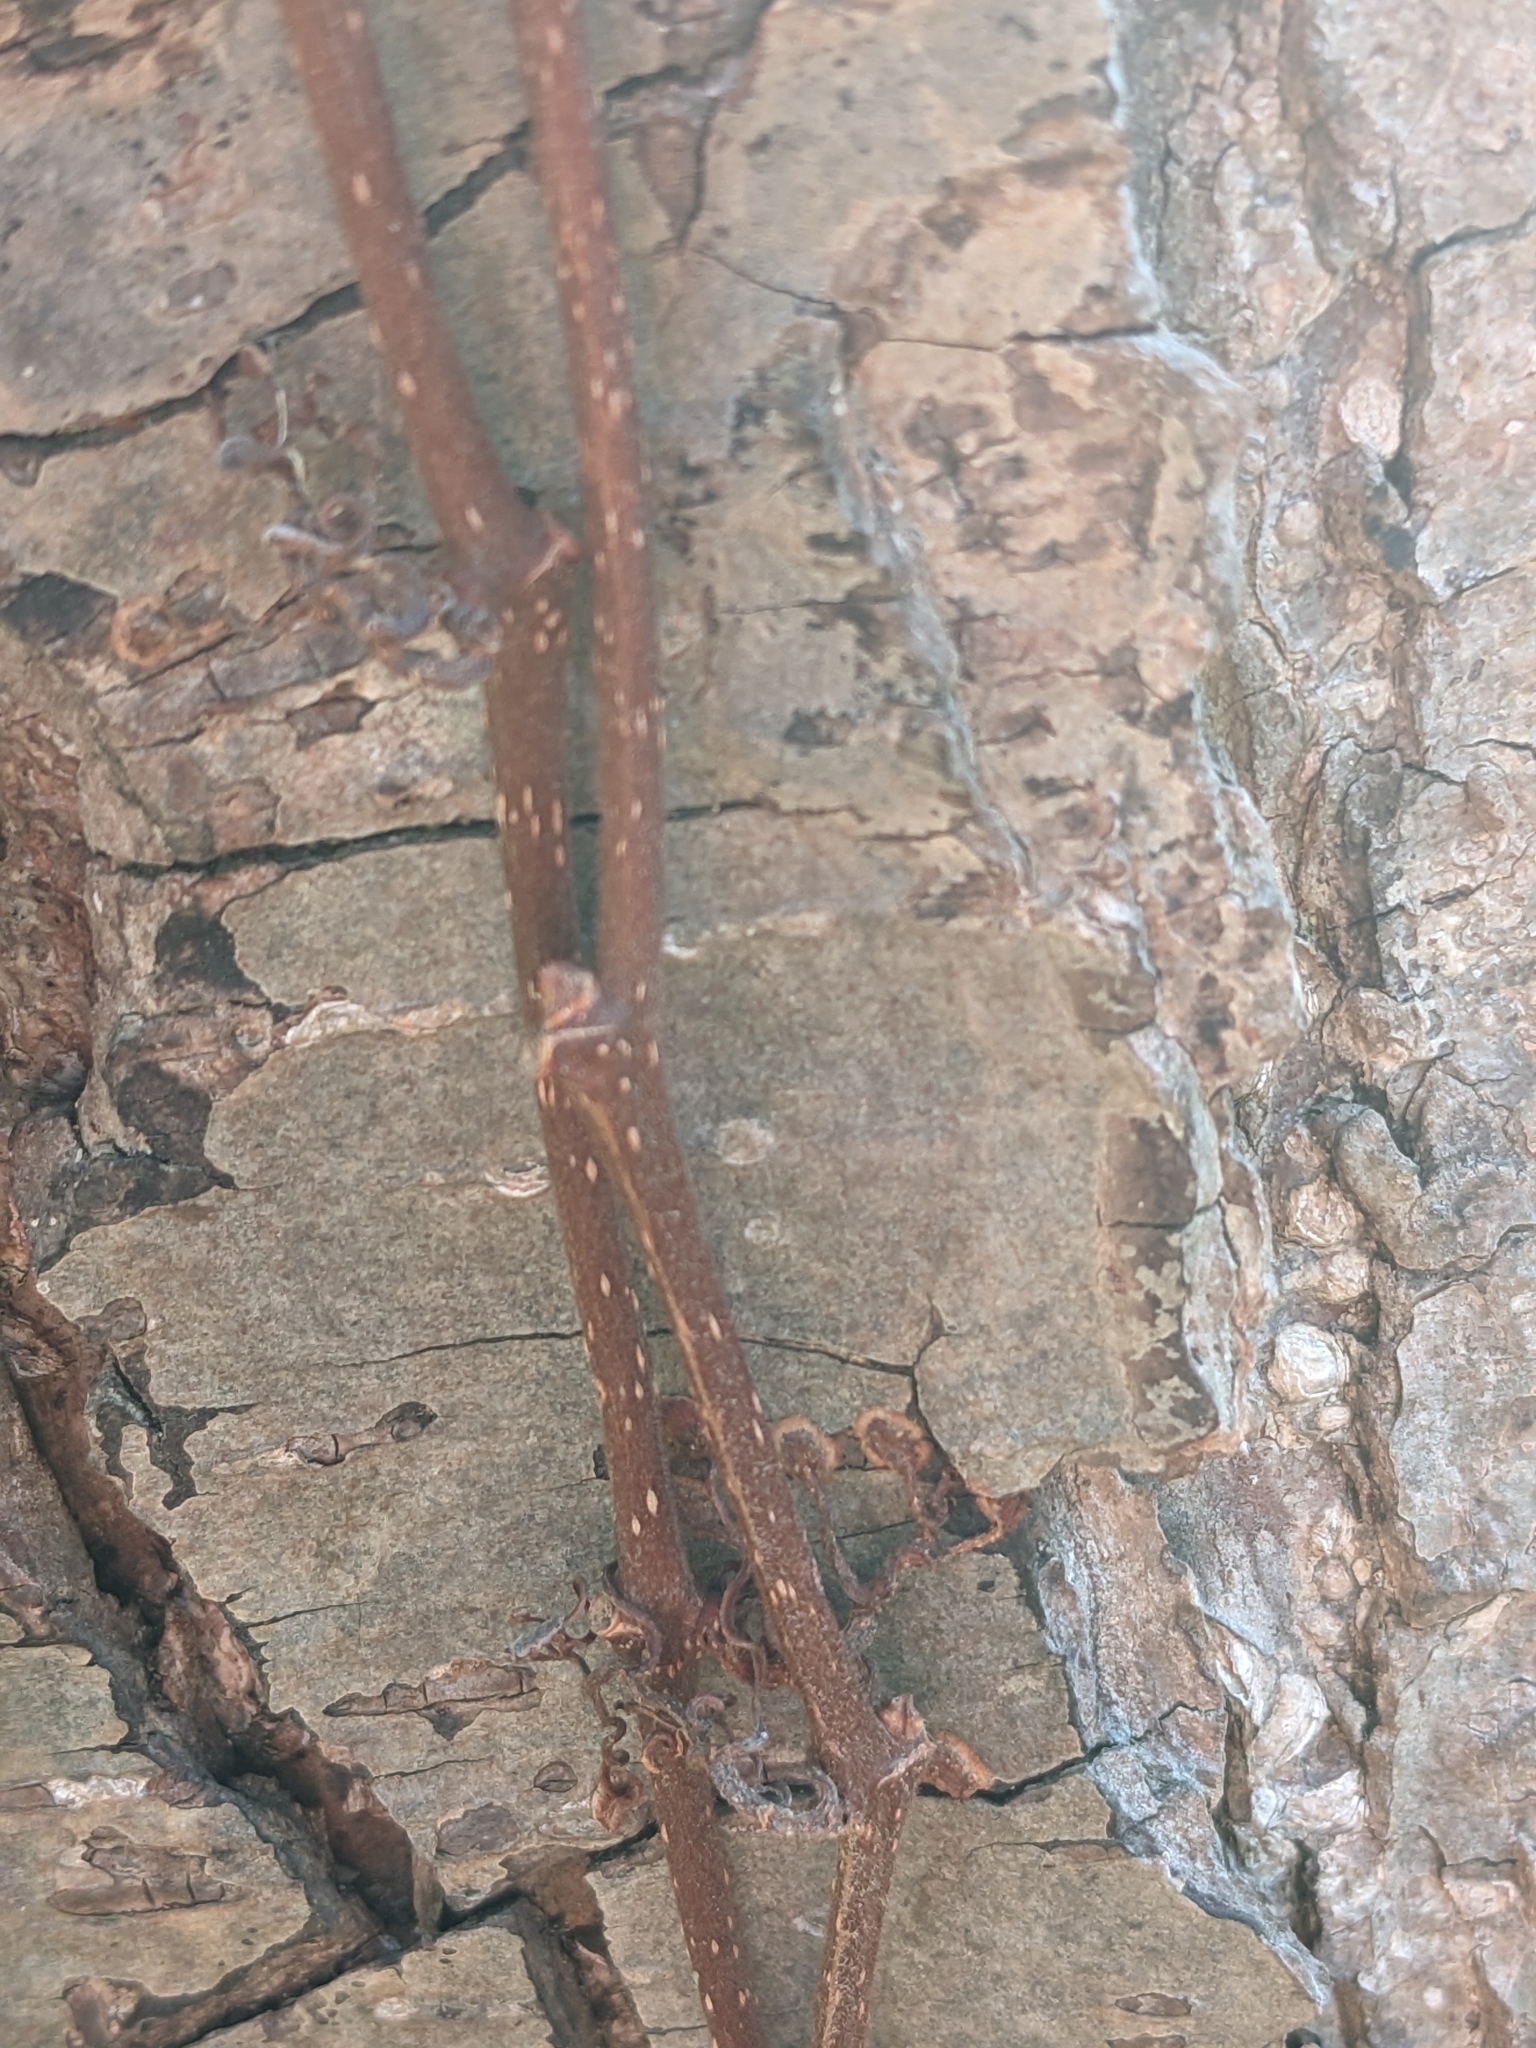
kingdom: Plantae
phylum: Tracheophyta
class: Magnoliopsida
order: Vitales
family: Vitaceae
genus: Parthenocissus
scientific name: Parthenocissus quinquefolia
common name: Virginia-creeper
